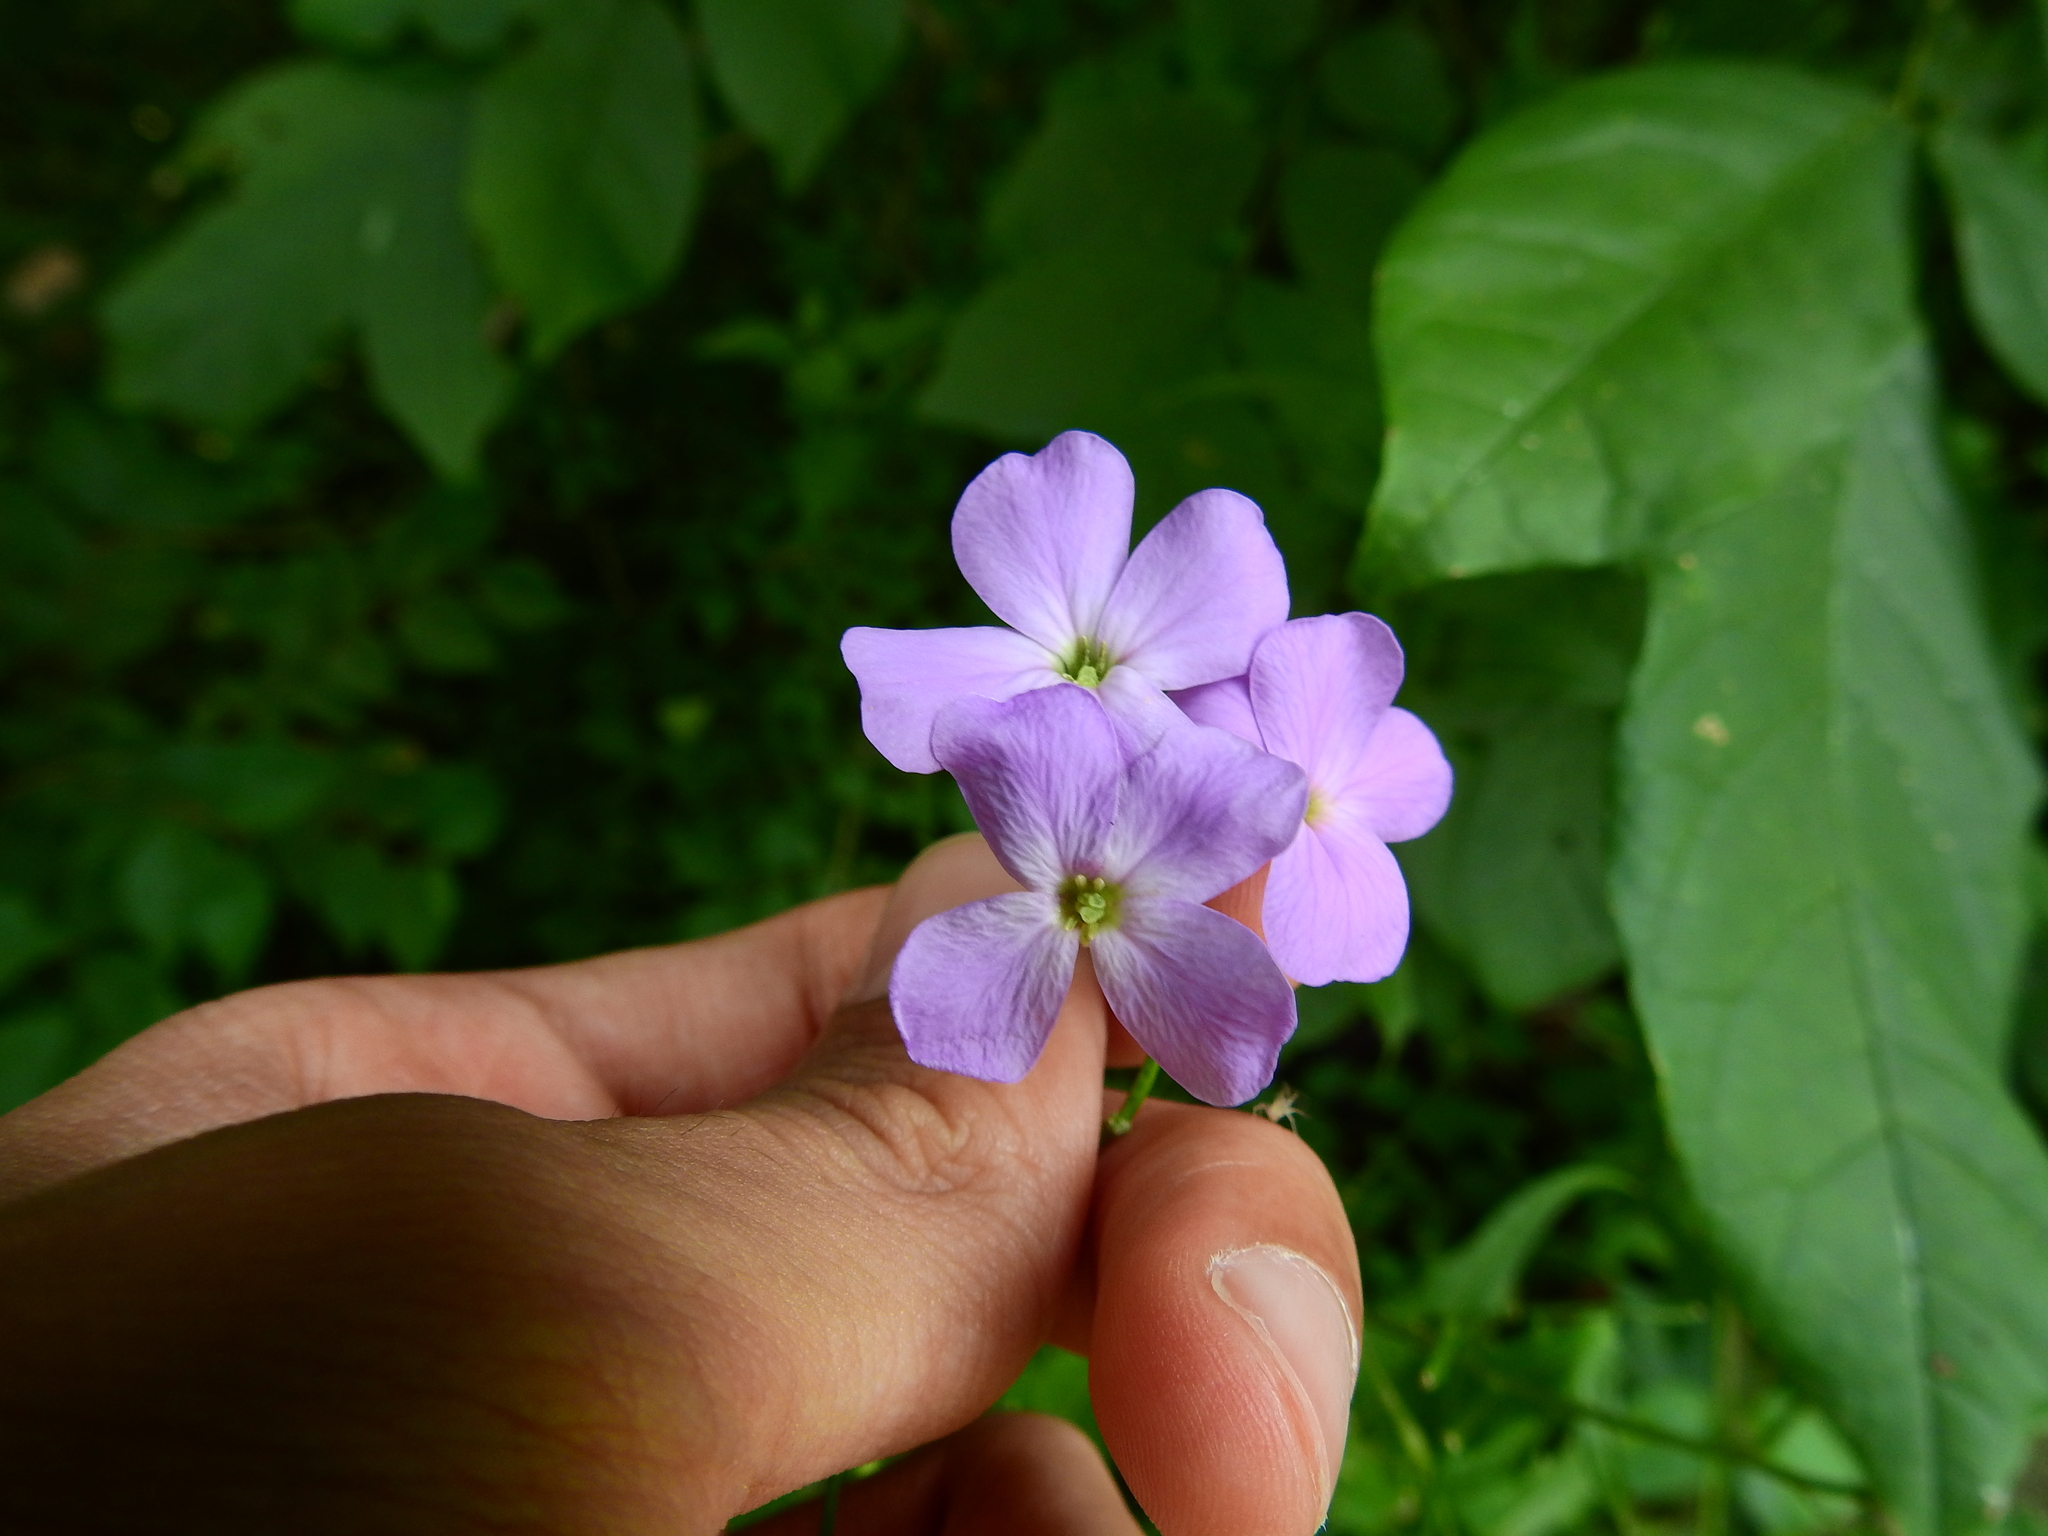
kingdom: Plantae
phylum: Tracheophyta
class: Magnoliopsida
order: Brassicales
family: Brassicaceae
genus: Hesperis
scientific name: Hesperis matronalis
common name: Dame's-violet
